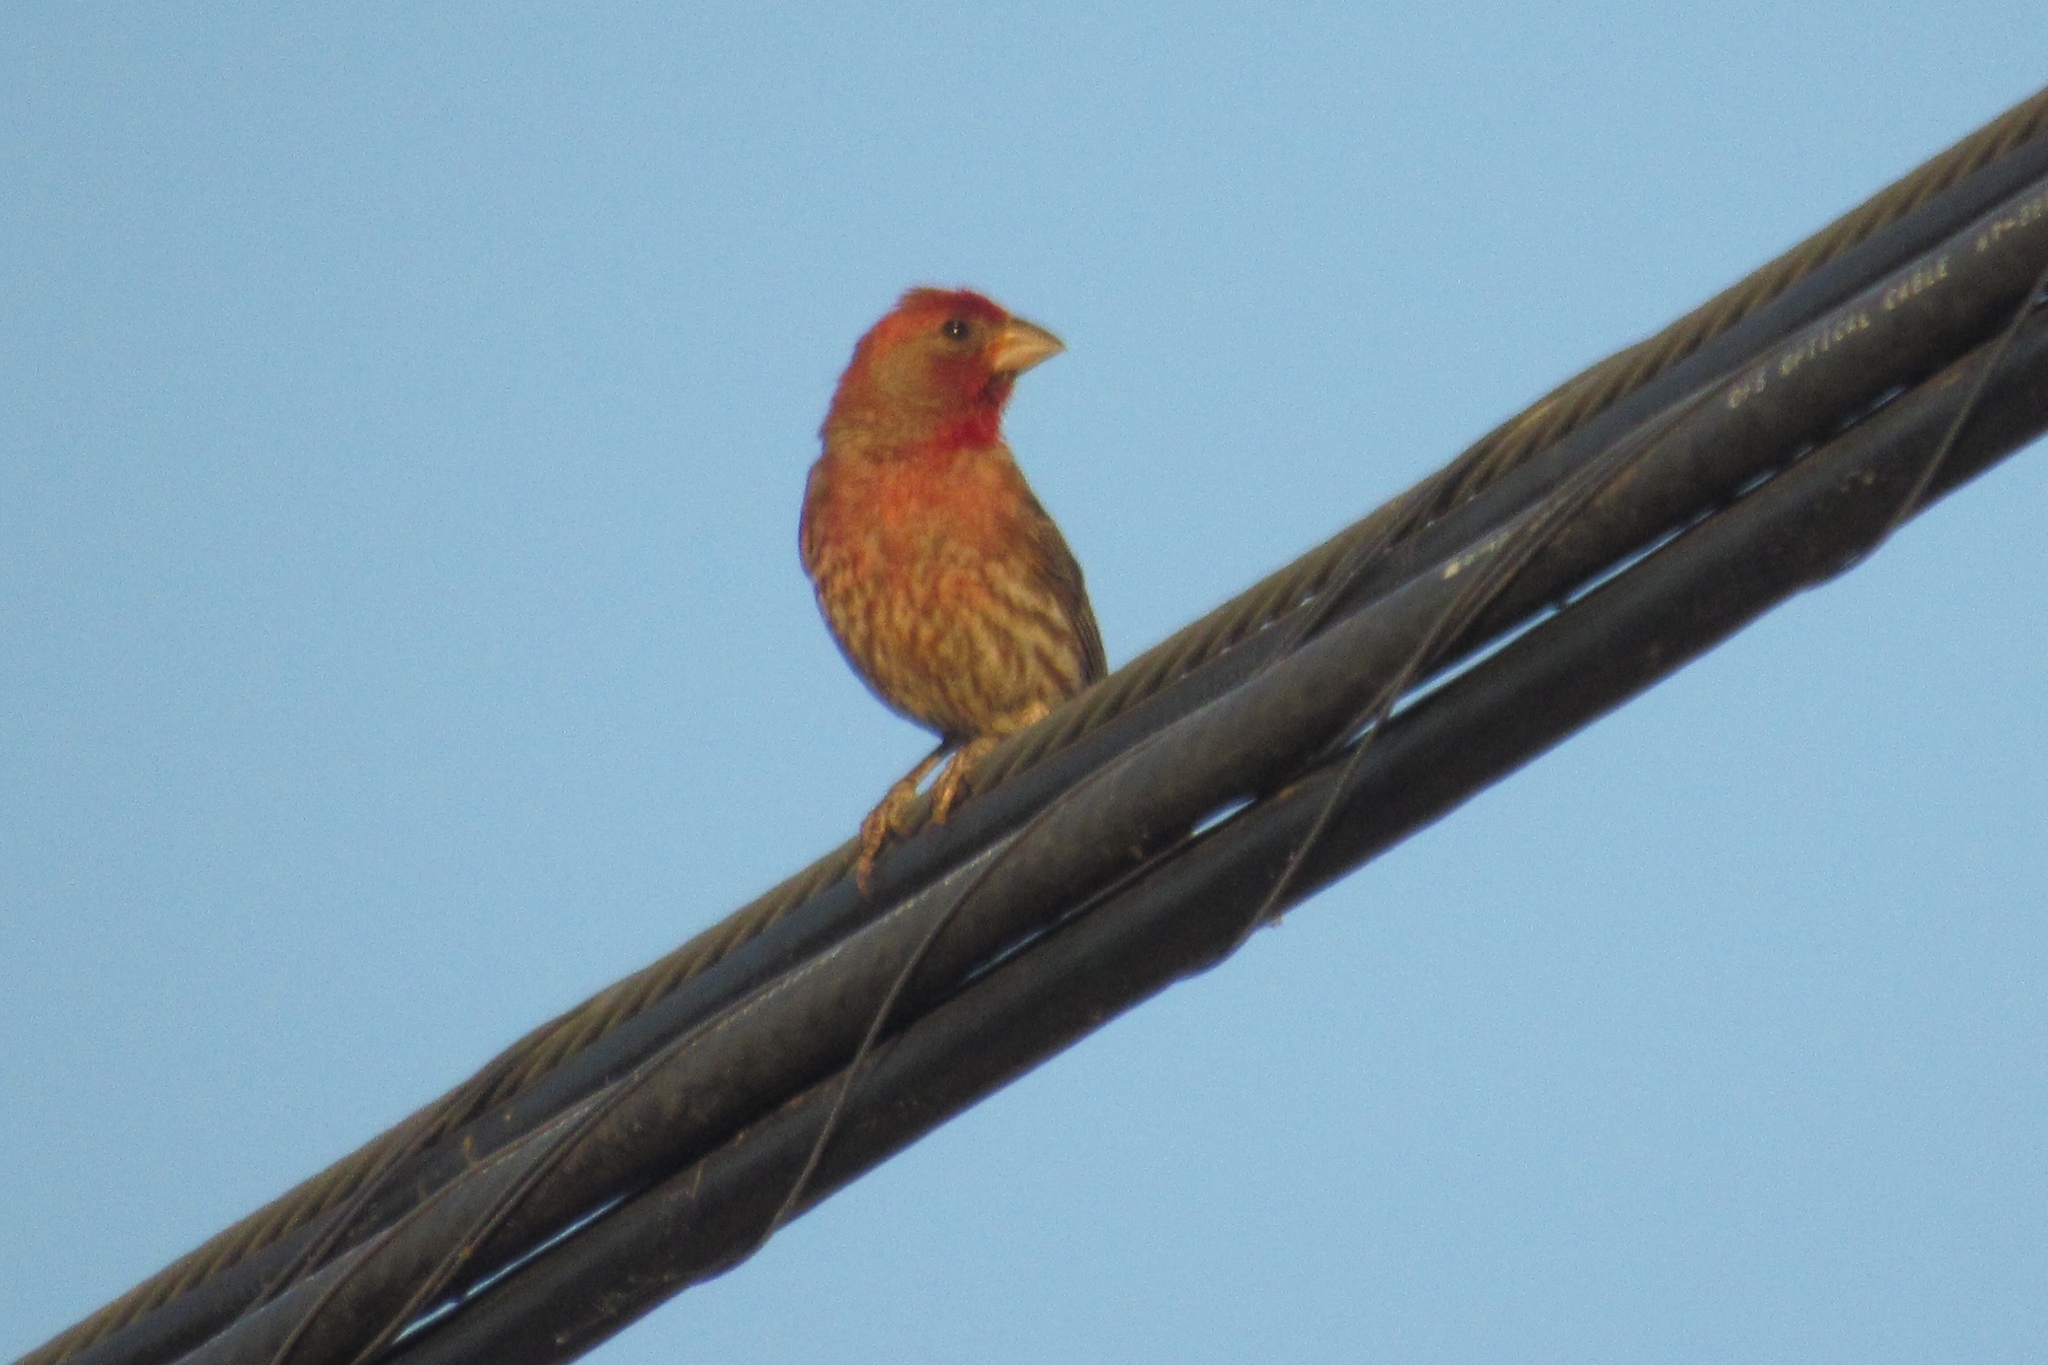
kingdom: Animalia
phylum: Chordata
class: Aves
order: Passeriformes
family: Fringillidae
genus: Haemorhous
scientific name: Haemorhous mexicanus
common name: House finch
